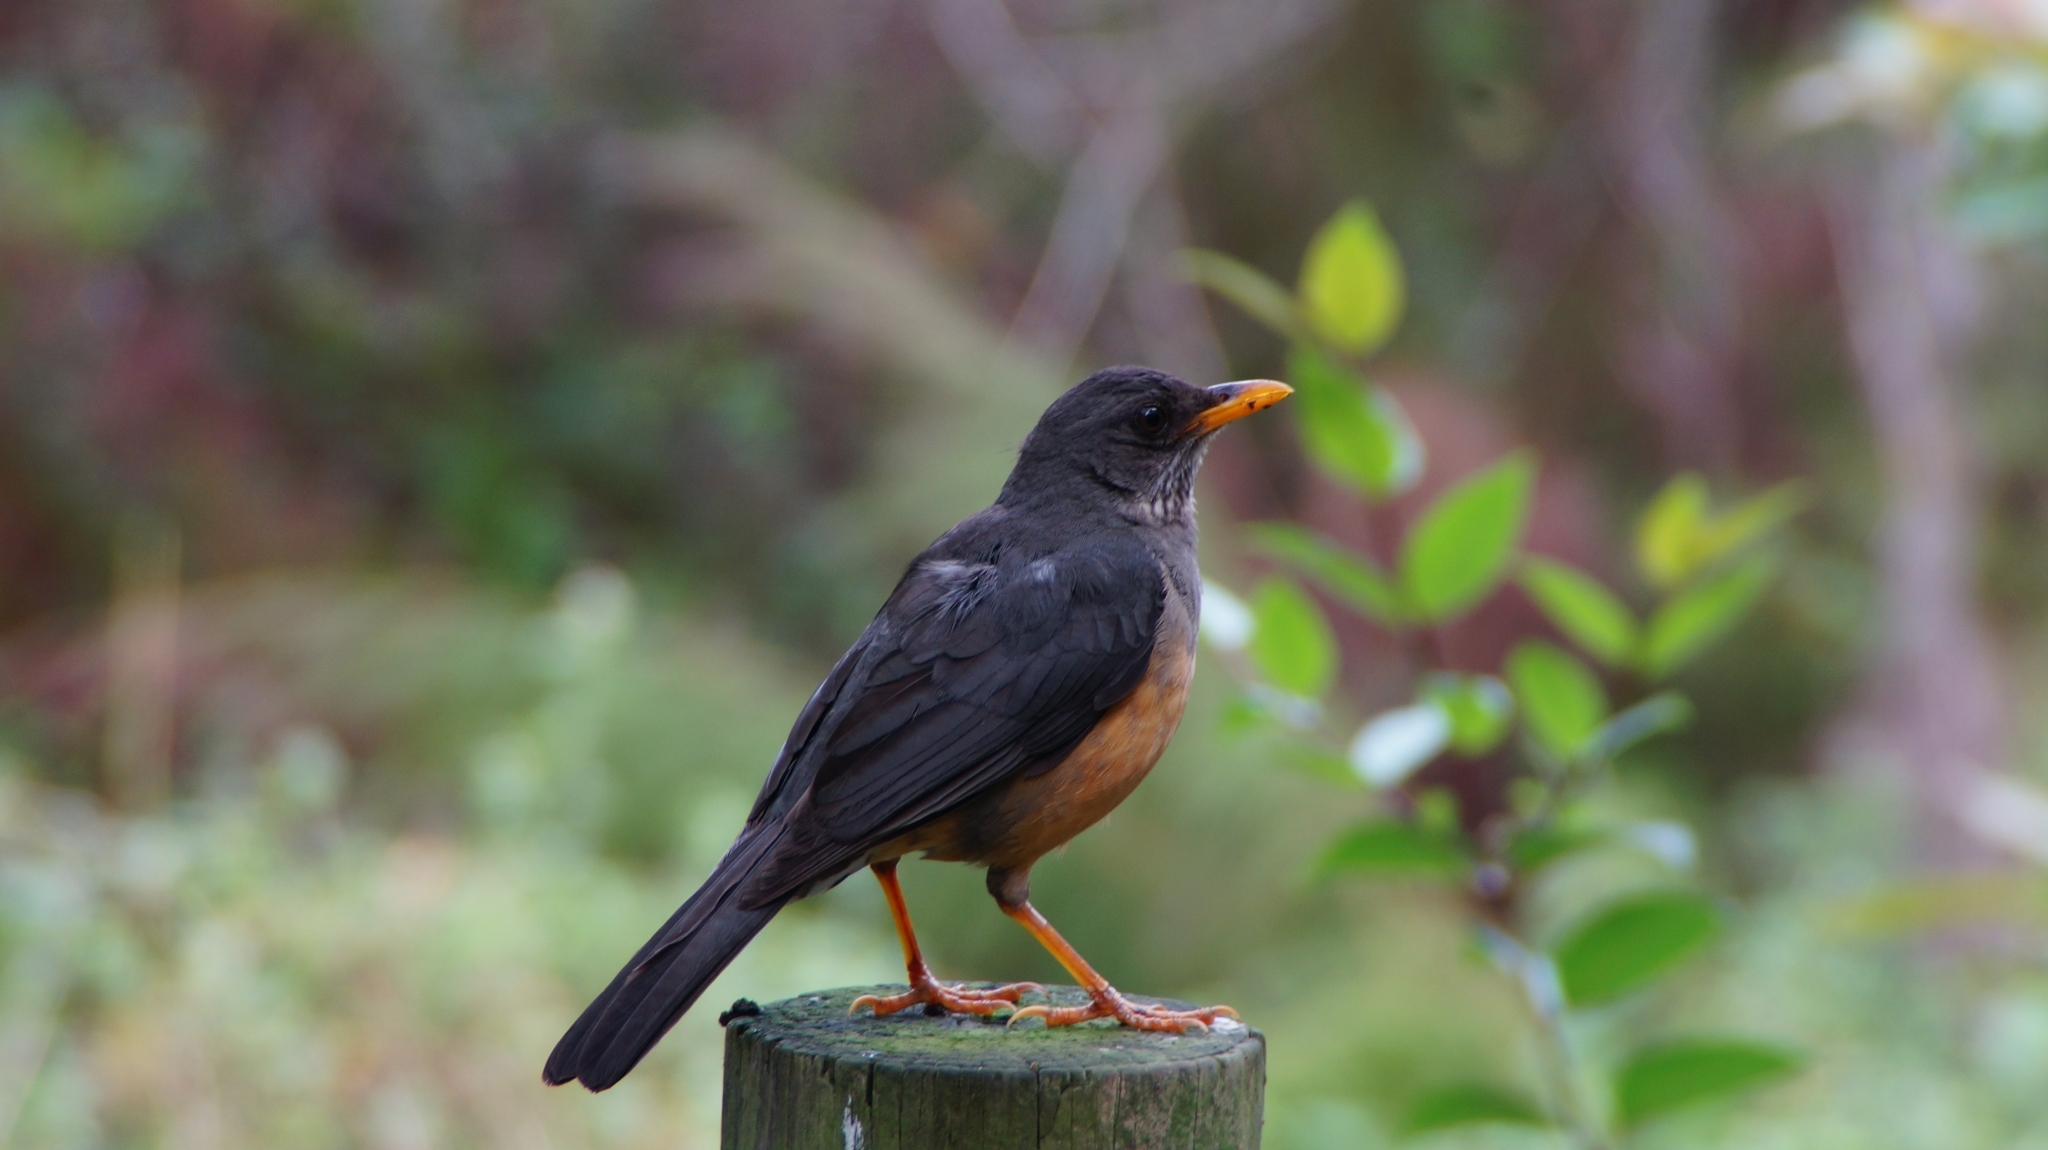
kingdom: Animalia
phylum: Chordata
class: Aves
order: Passeriformes
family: Turdidae
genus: Turdus
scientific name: Turdus olivaceus
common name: Olive thrush
